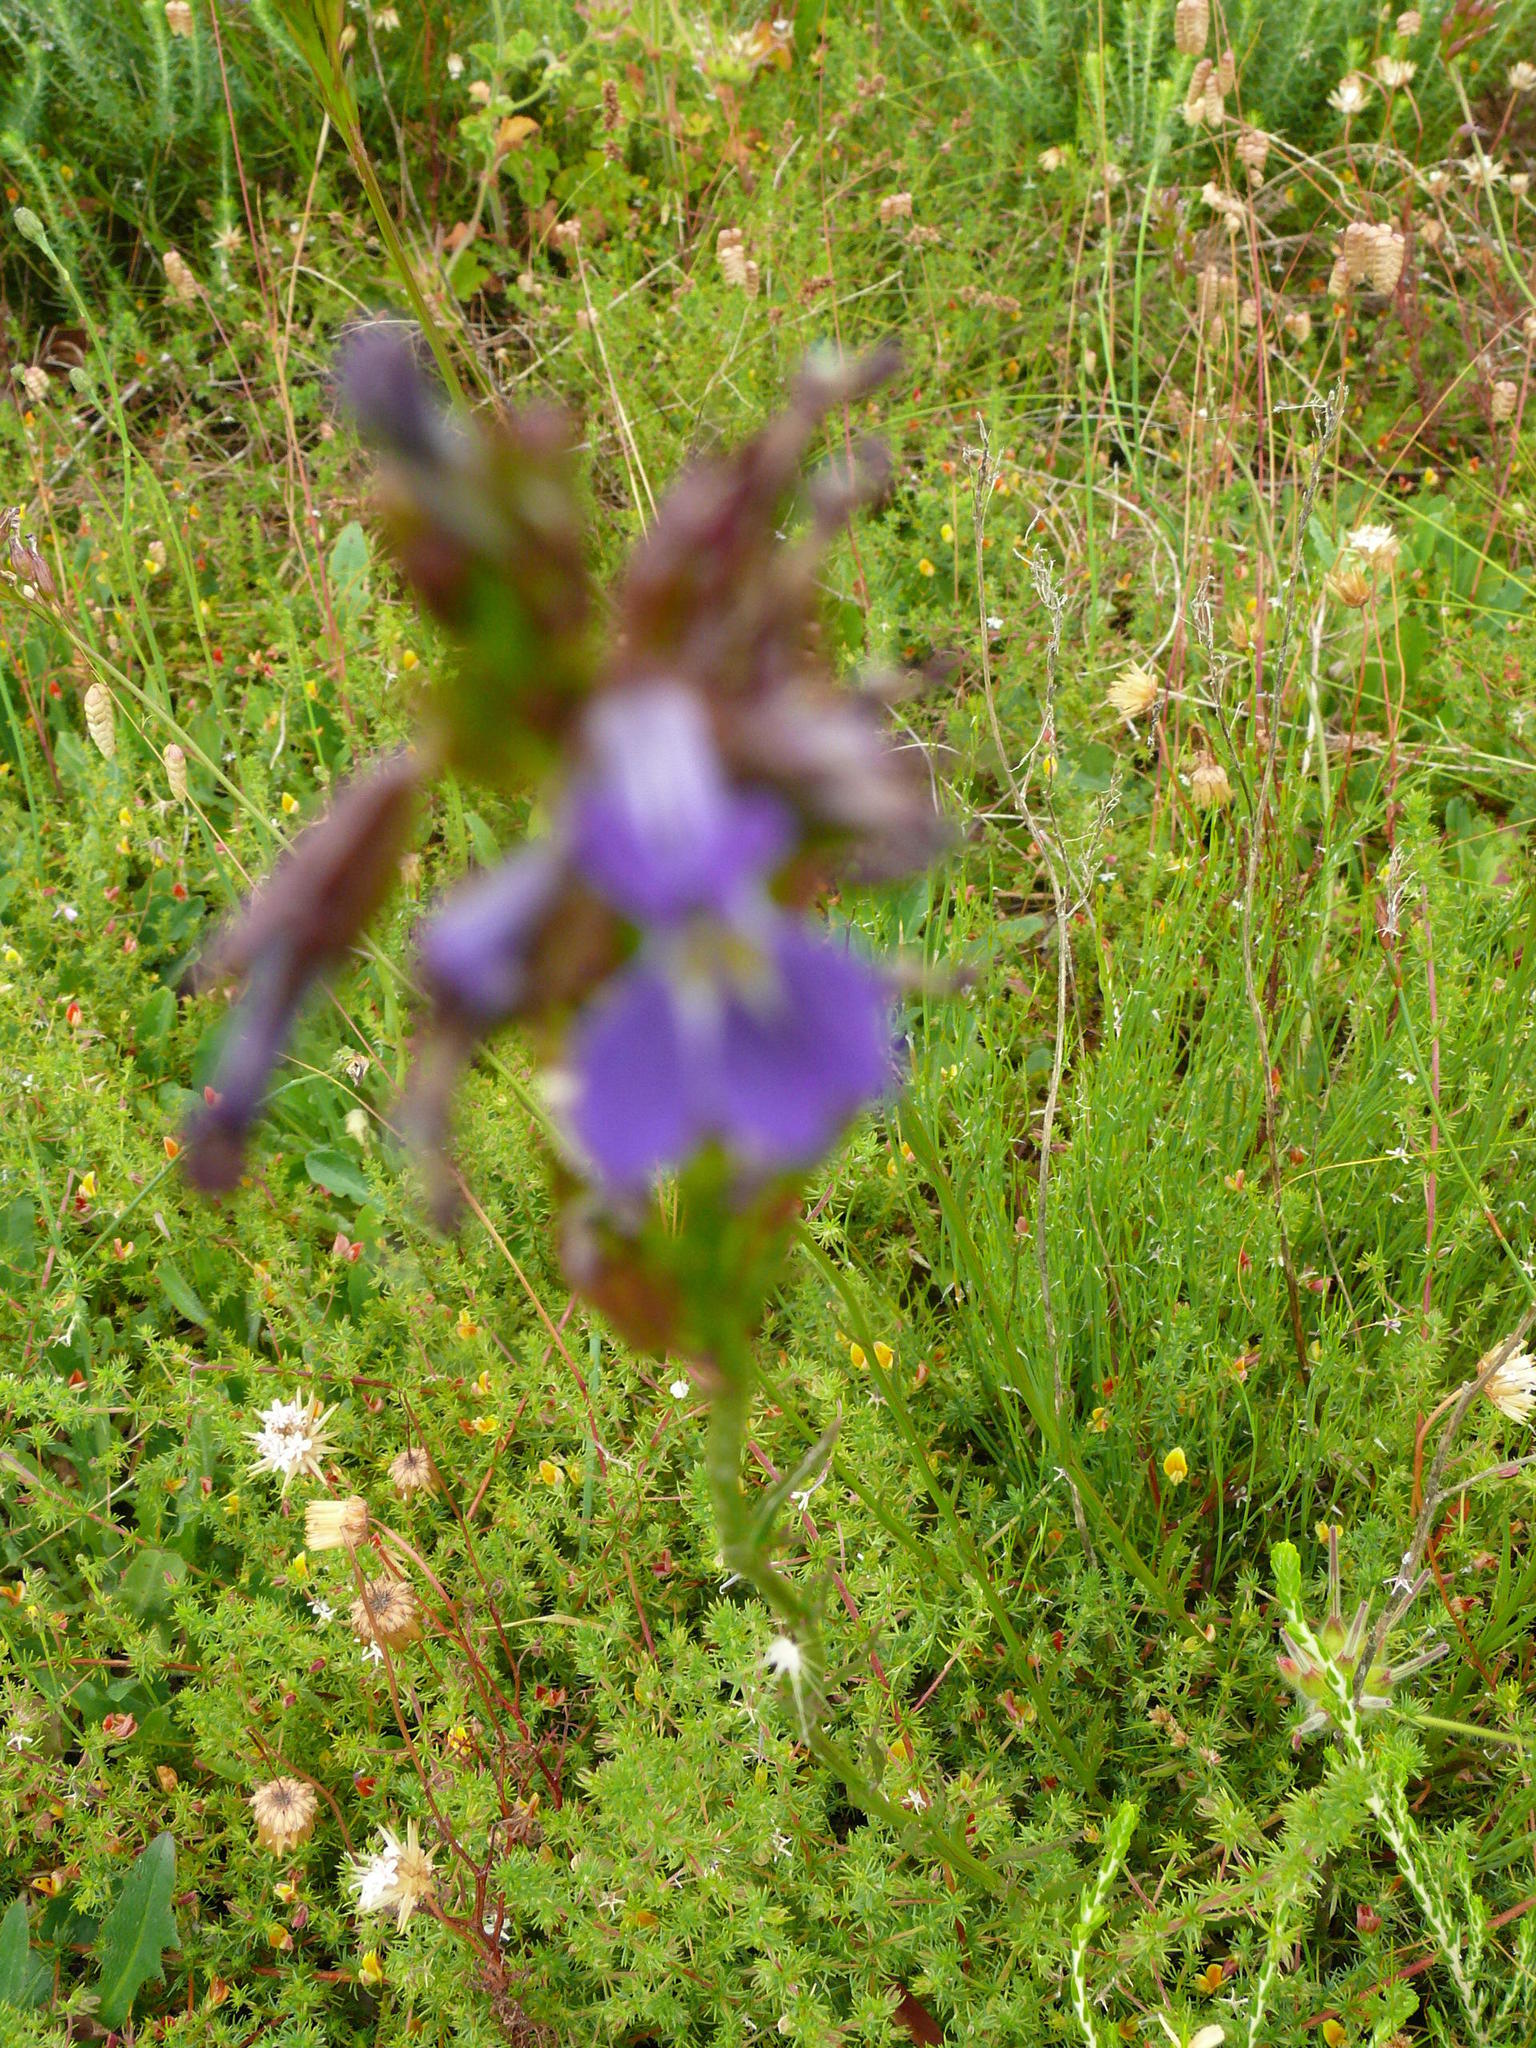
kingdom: Plantae
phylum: Tracheophyta
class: Magnoliopsida
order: Asterales
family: Campanulaceae
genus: Lobelia
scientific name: Lobelia comosa
